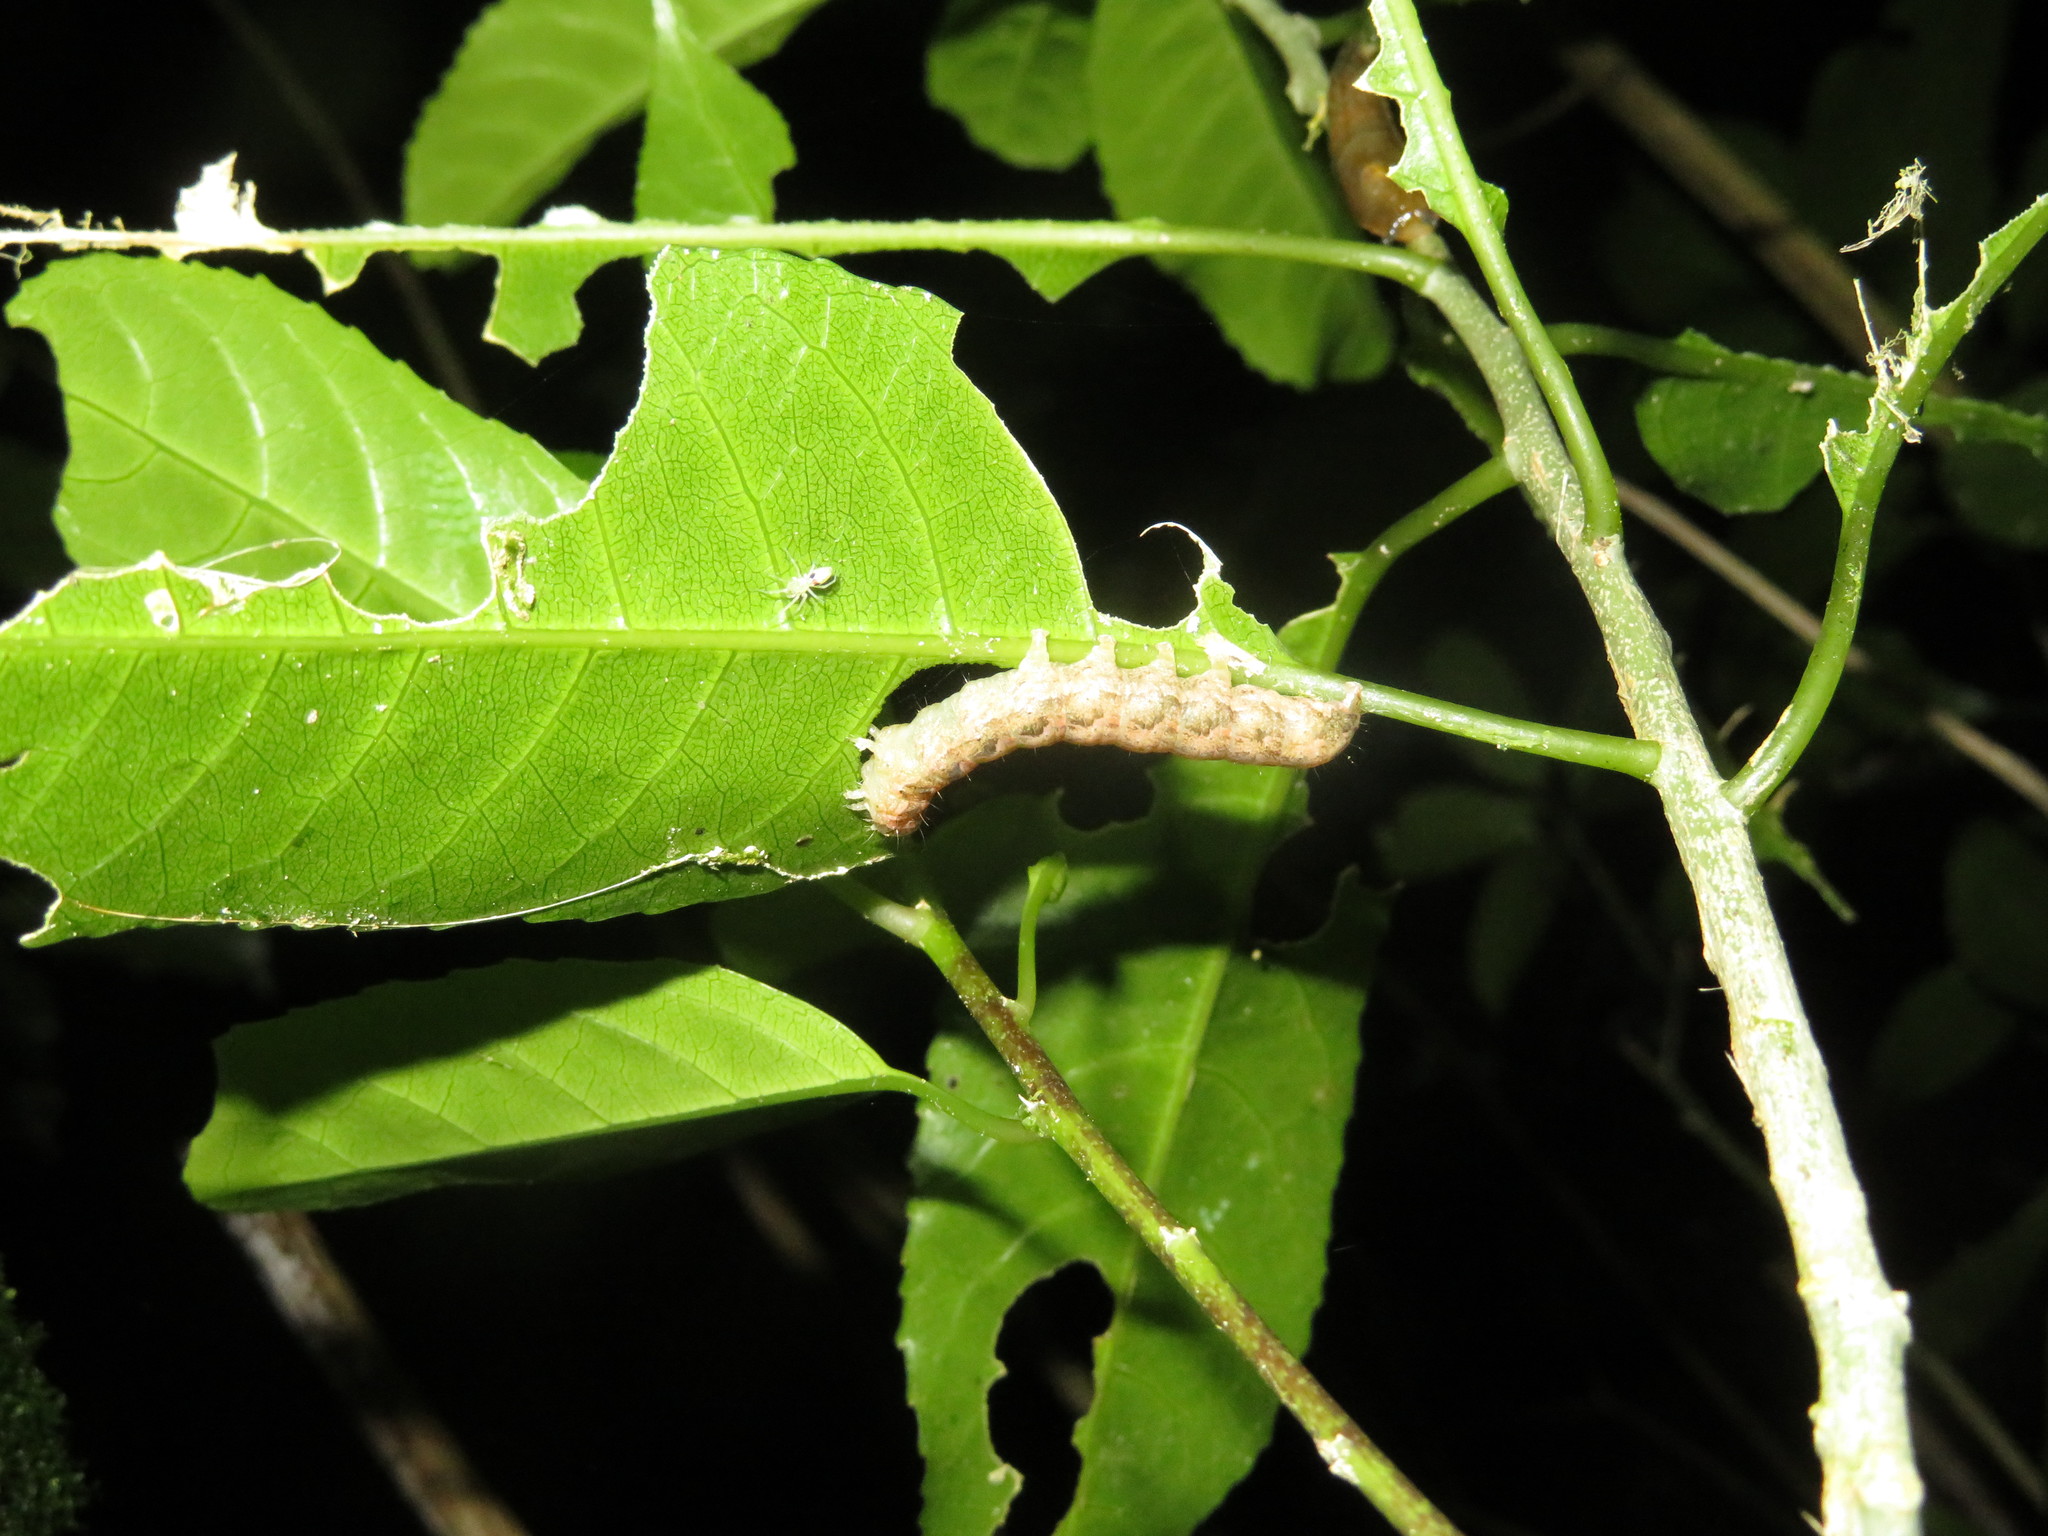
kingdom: Animalia
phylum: Arthropoda
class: Insecta
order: Lepidoptera
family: Noctuidae
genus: Feredayia
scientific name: Feredayia grammosa
